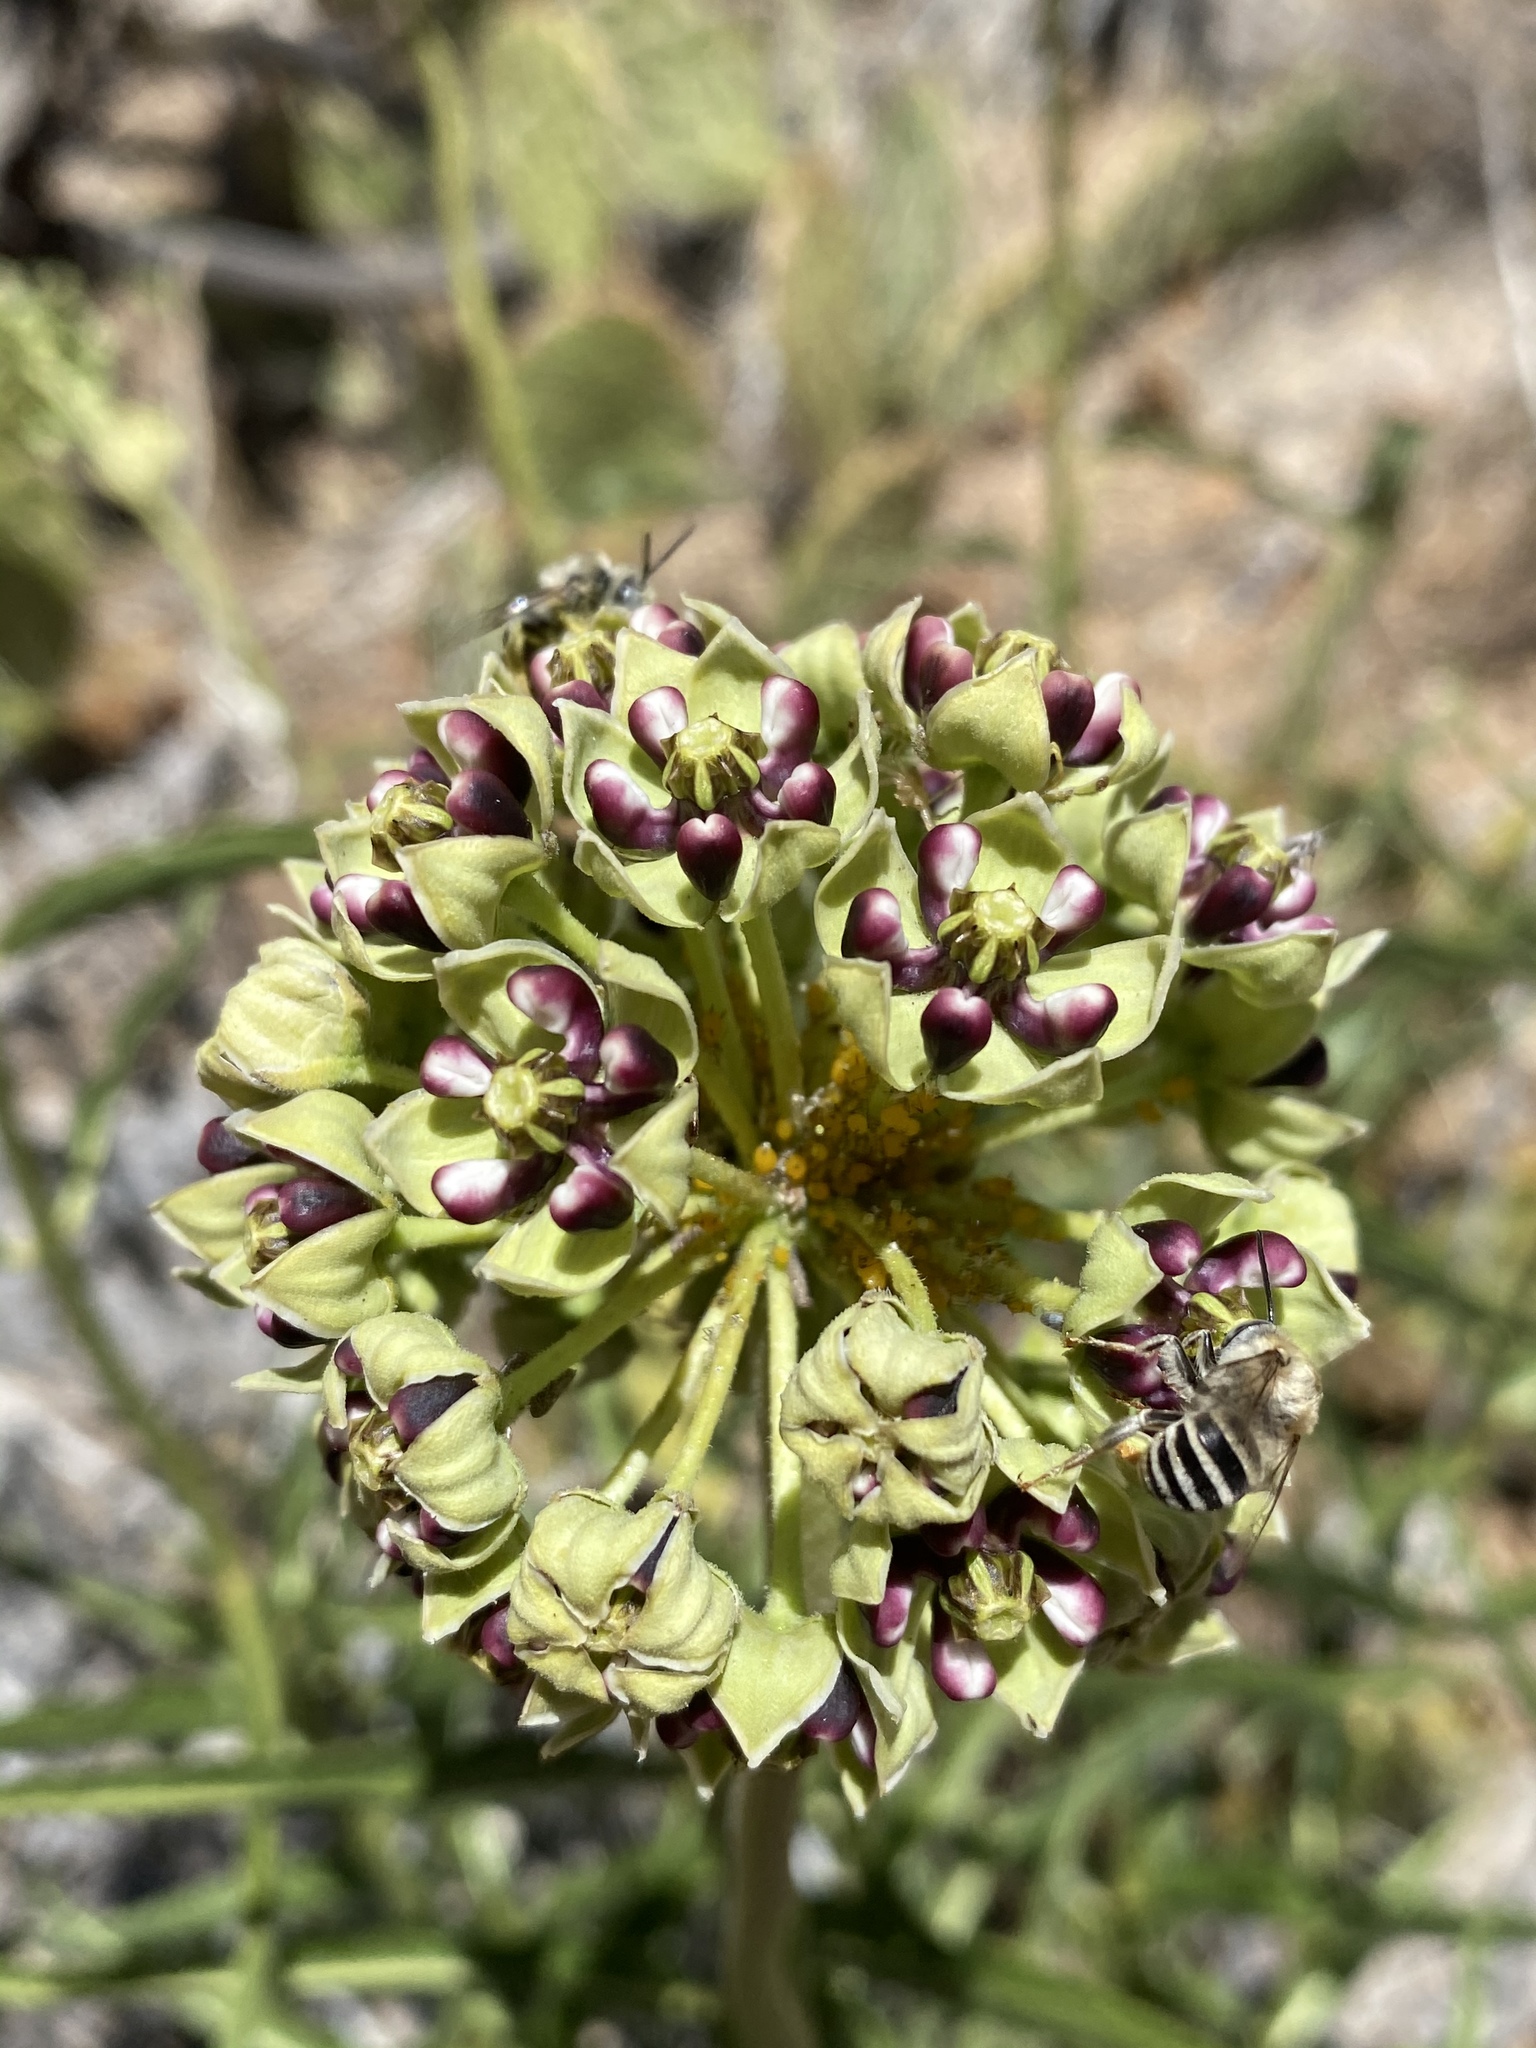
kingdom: Plantae
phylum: Tracheophyta
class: Magnoliopsida
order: Gentianales
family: Apocynaceae
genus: Asclepias
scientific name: Asclepias asperula
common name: Antelope horns
